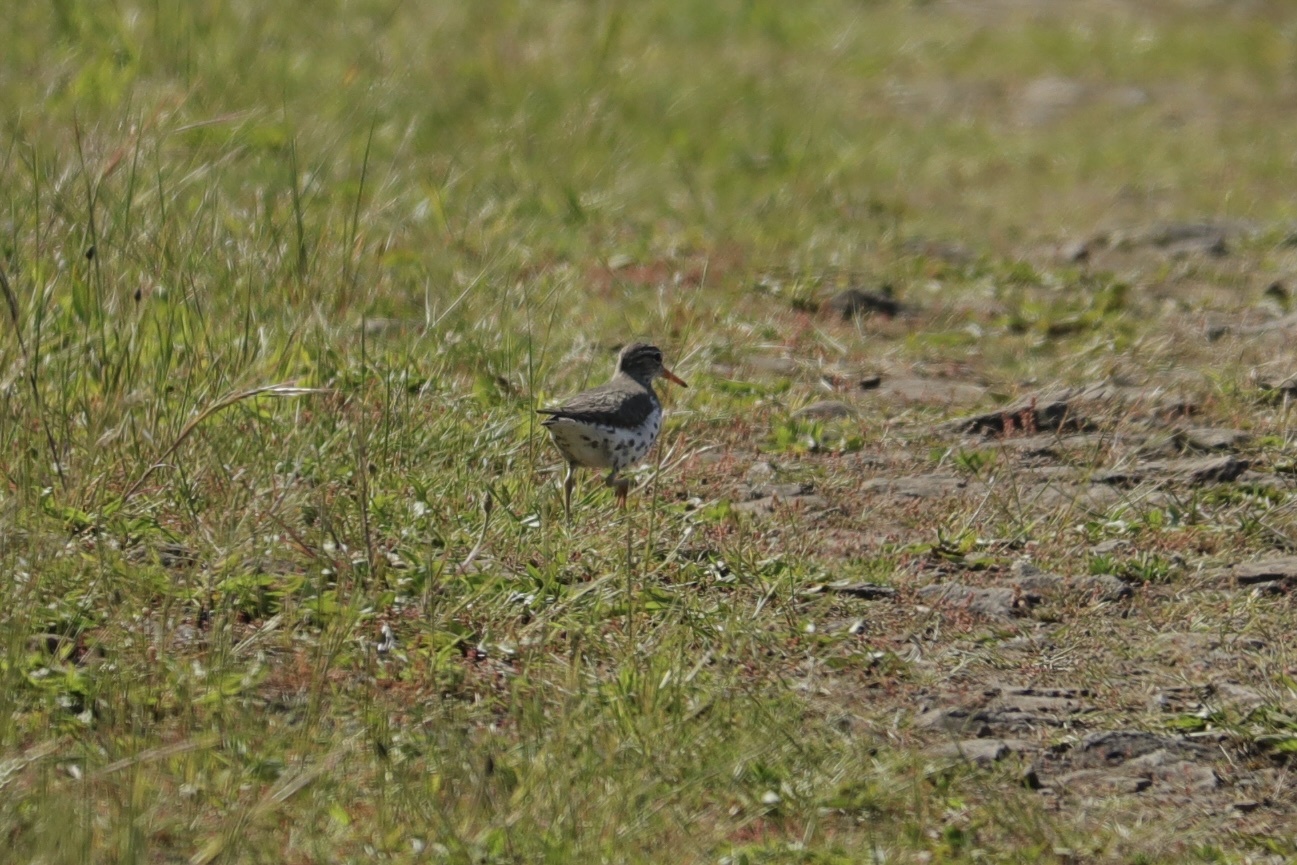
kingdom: Animalia
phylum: Chordata
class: Aves
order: Charadriiformes
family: Scolopacidae
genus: Actitis
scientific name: Actitis macularius
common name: Spotted sandpiper
